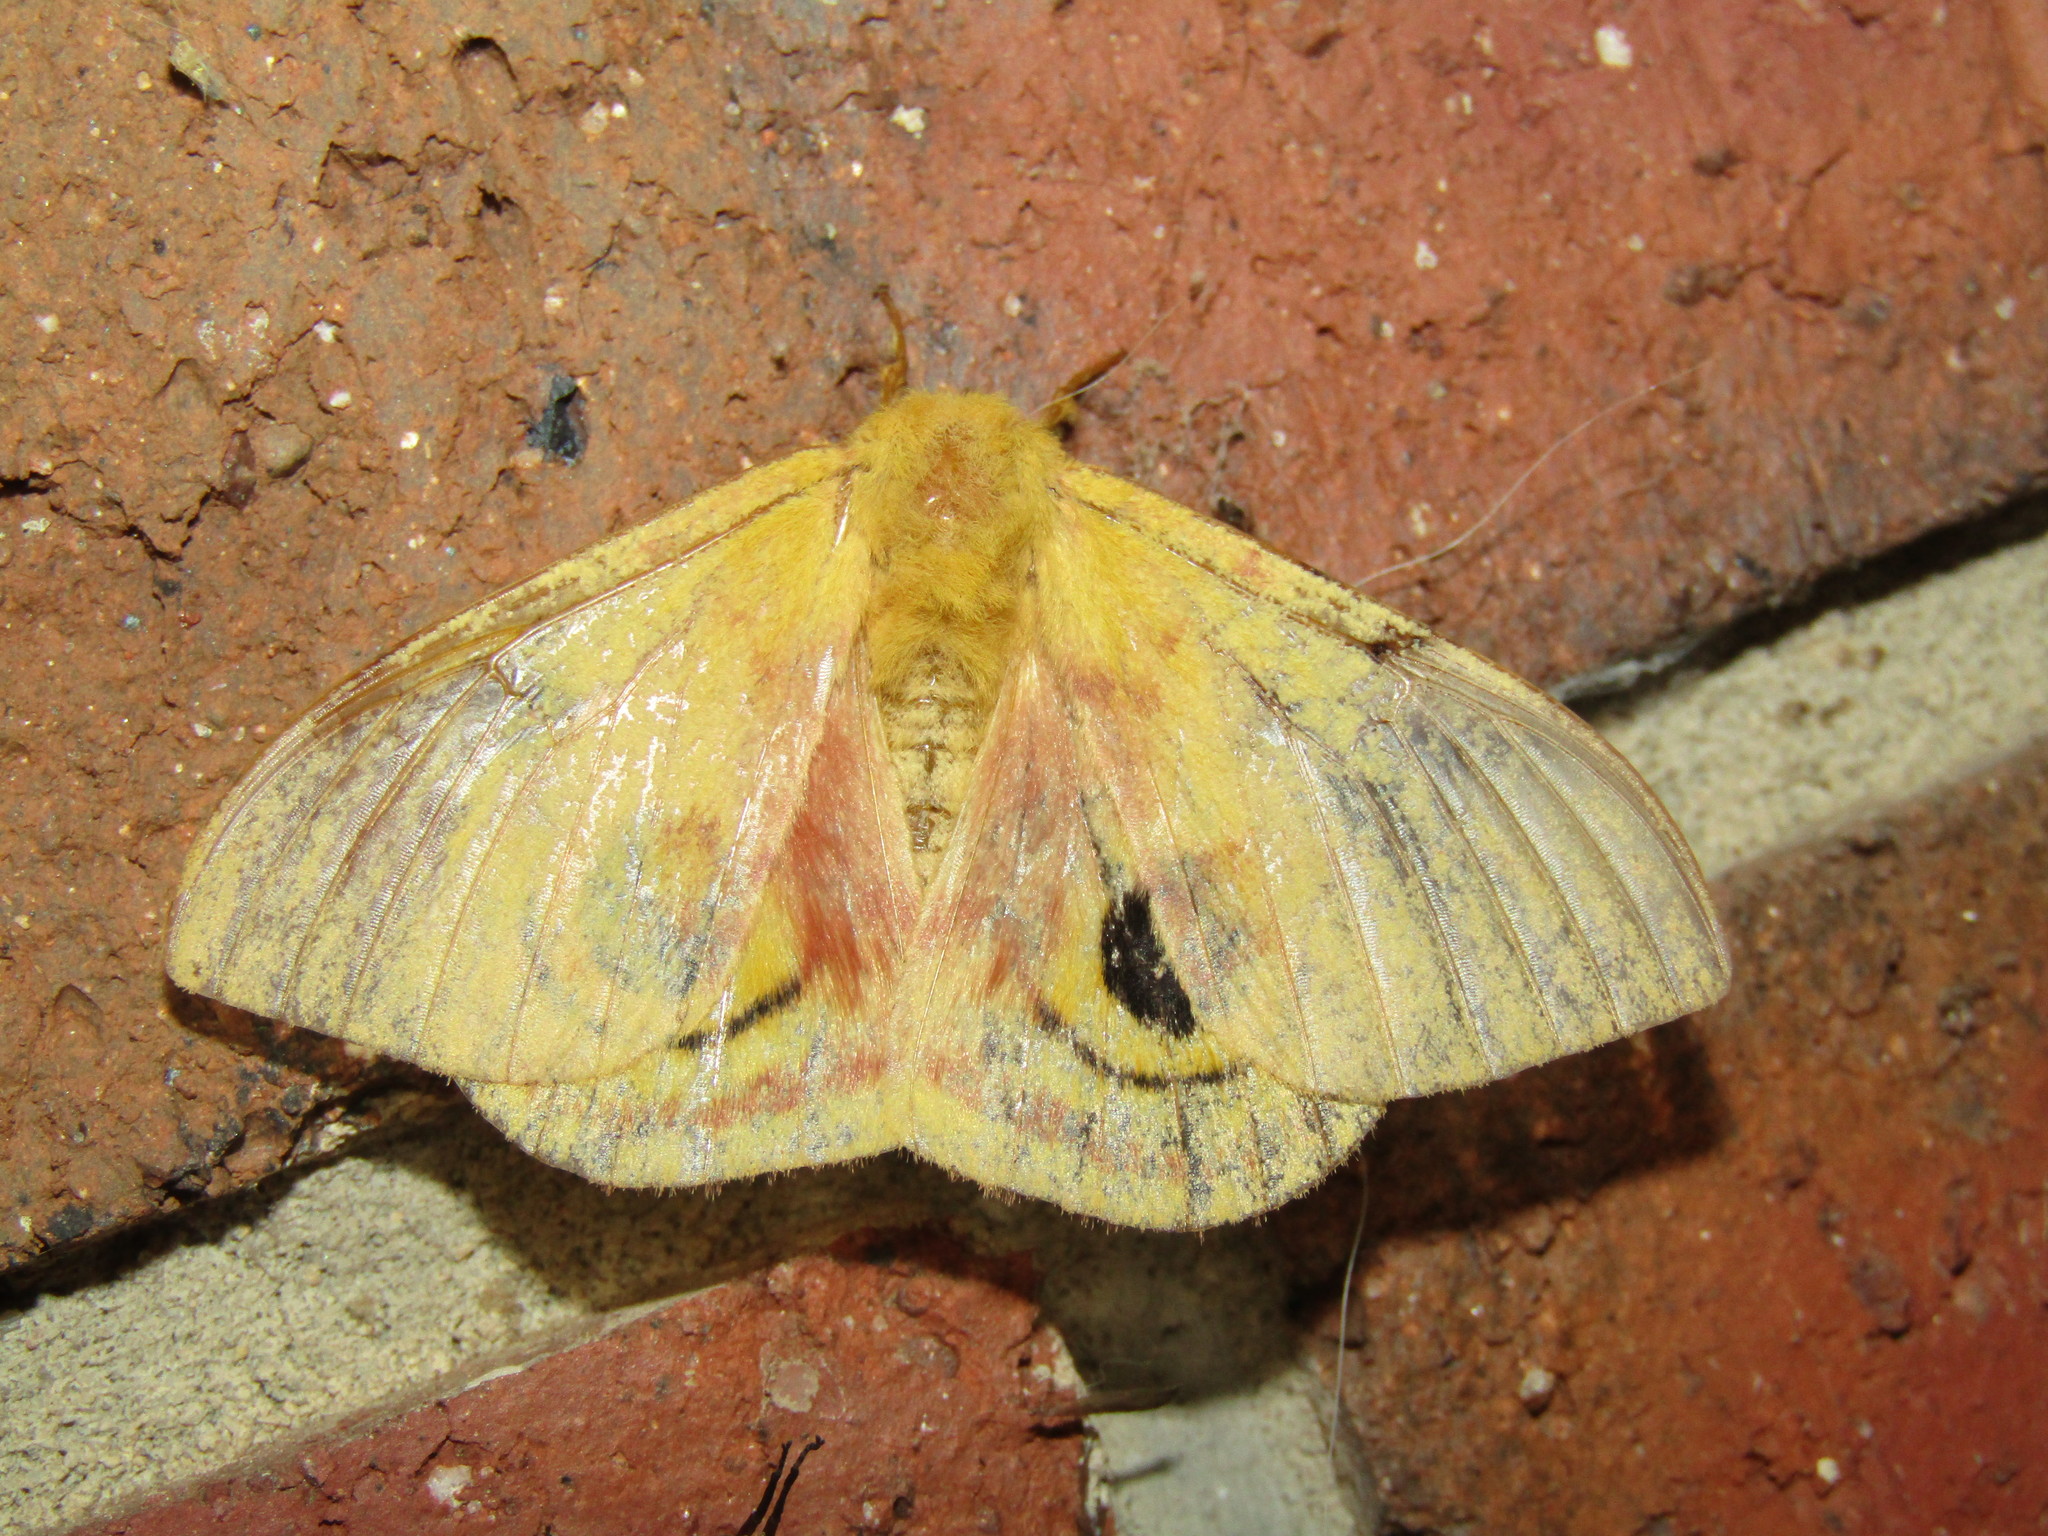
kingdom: Animalia
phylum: Arthropoda
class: Insecta
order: Lepidoptera
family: Saturniidae
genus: Automeris
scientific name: Automeris io
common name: Io moth
